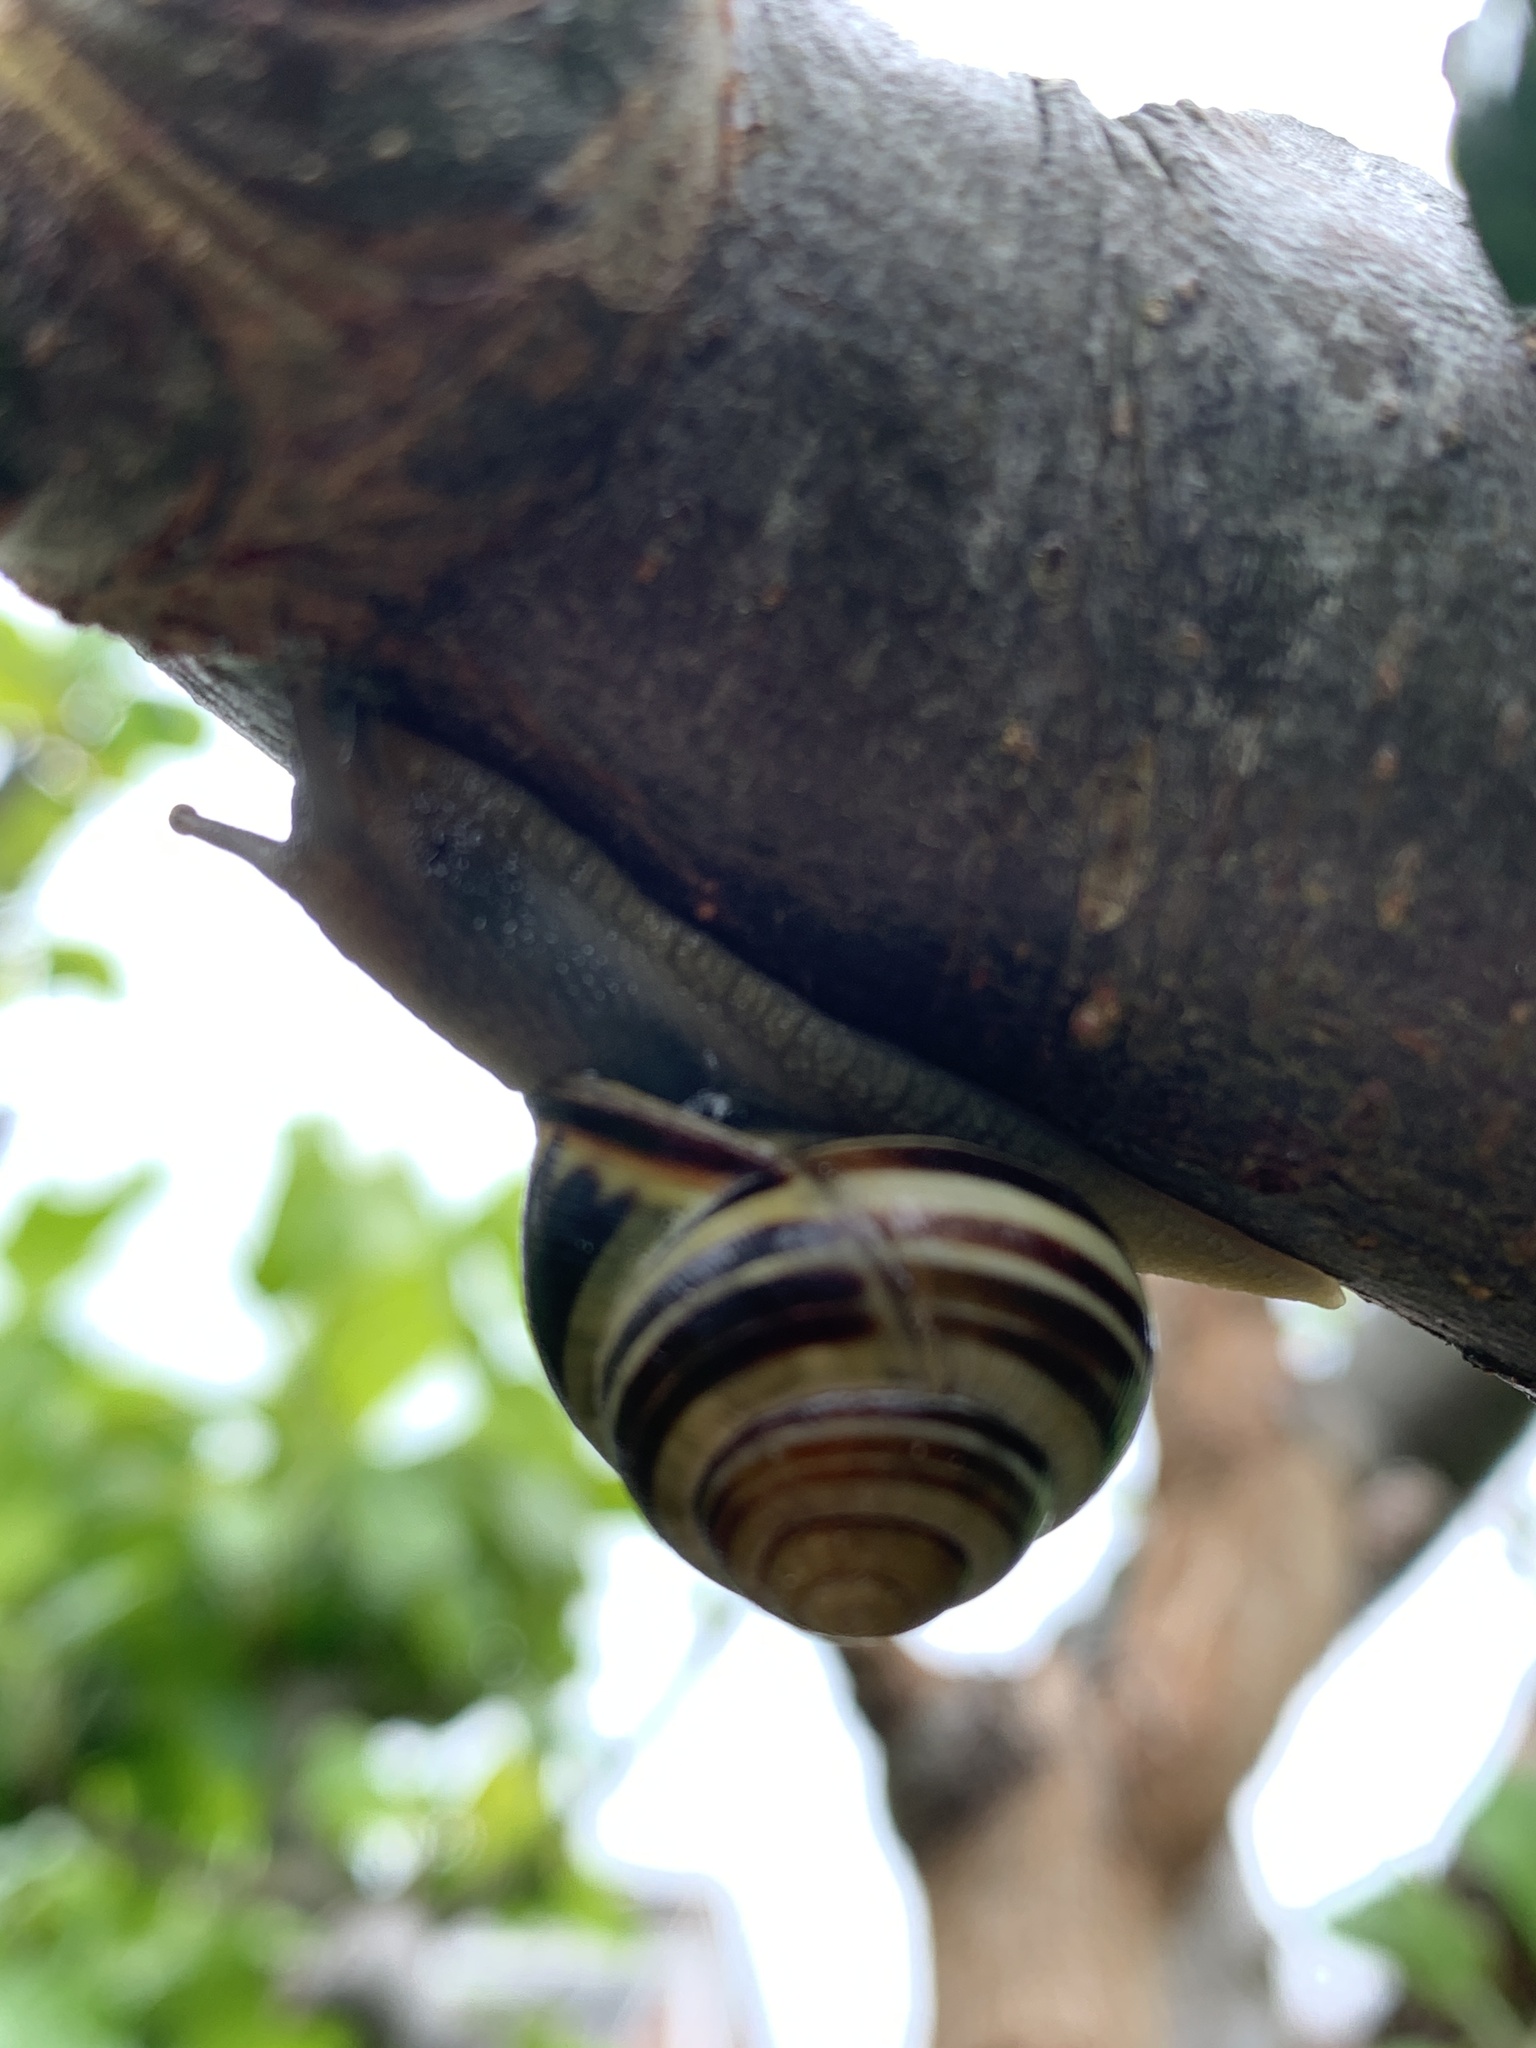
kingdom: Animalia
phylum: Mollusca
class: Gastropoda
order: Stylommatophora
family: Helicidae
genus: Cepaea
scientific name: Cepaea nemoralis
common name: Grovesnail
